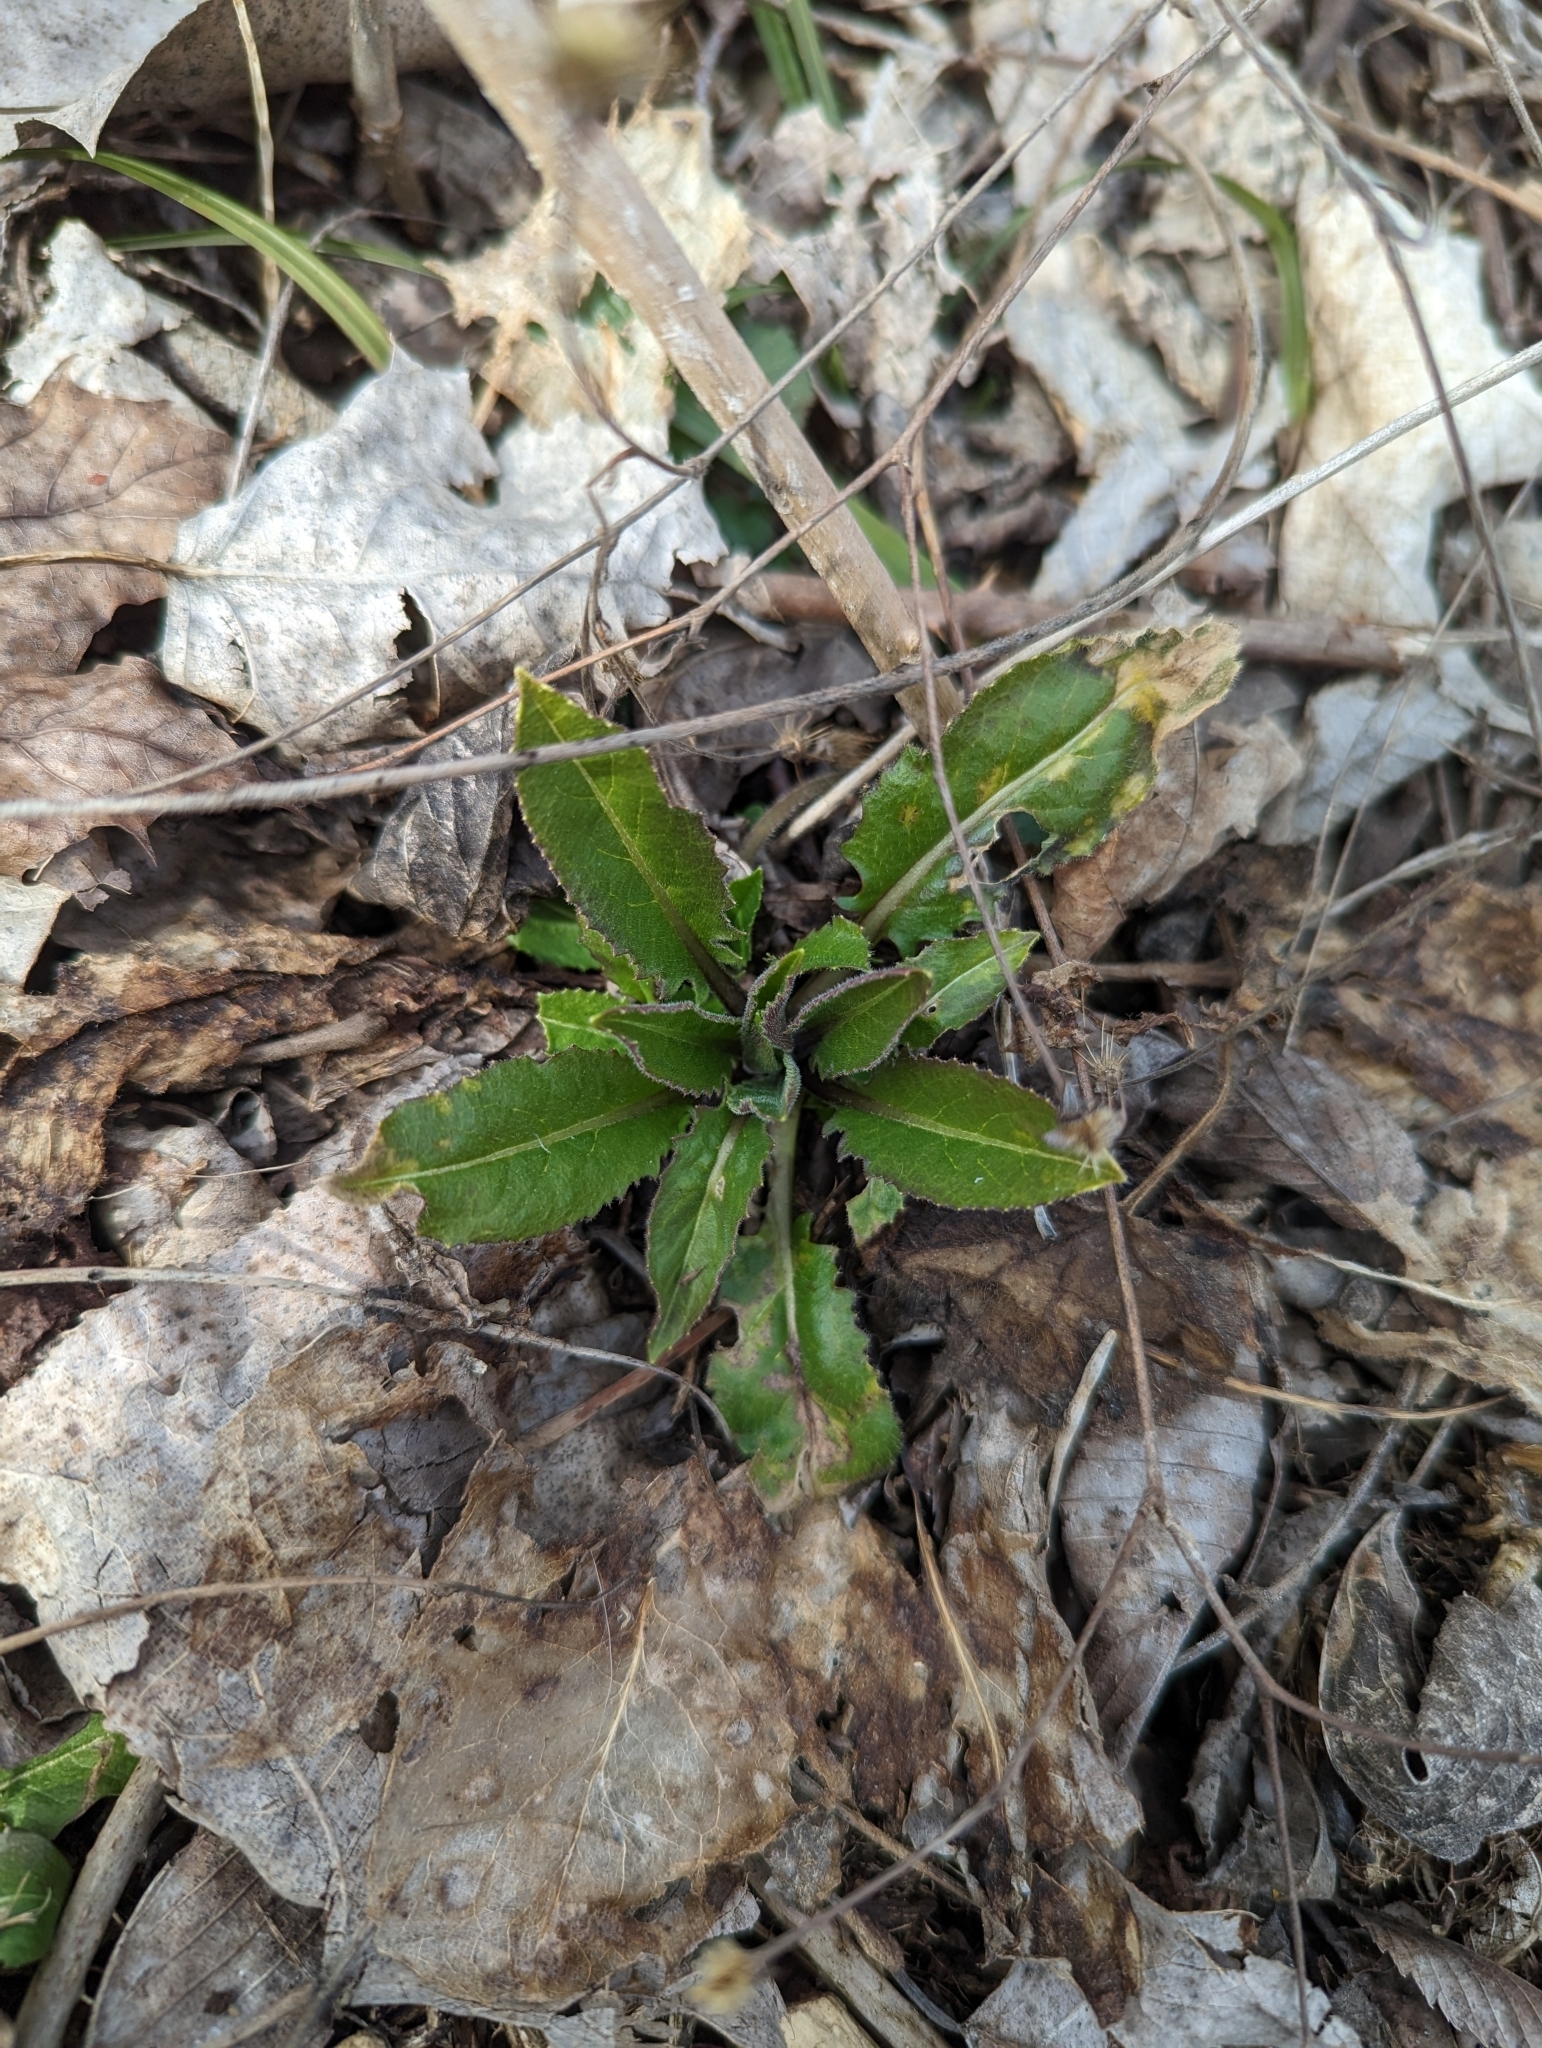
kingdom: Plantae
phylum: Tracheophyta
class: Magnoliopsida
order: Brassicales
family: Brassicaceae
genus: Hesperis
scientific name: Hesperis matronalis
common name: Dame's-violet
